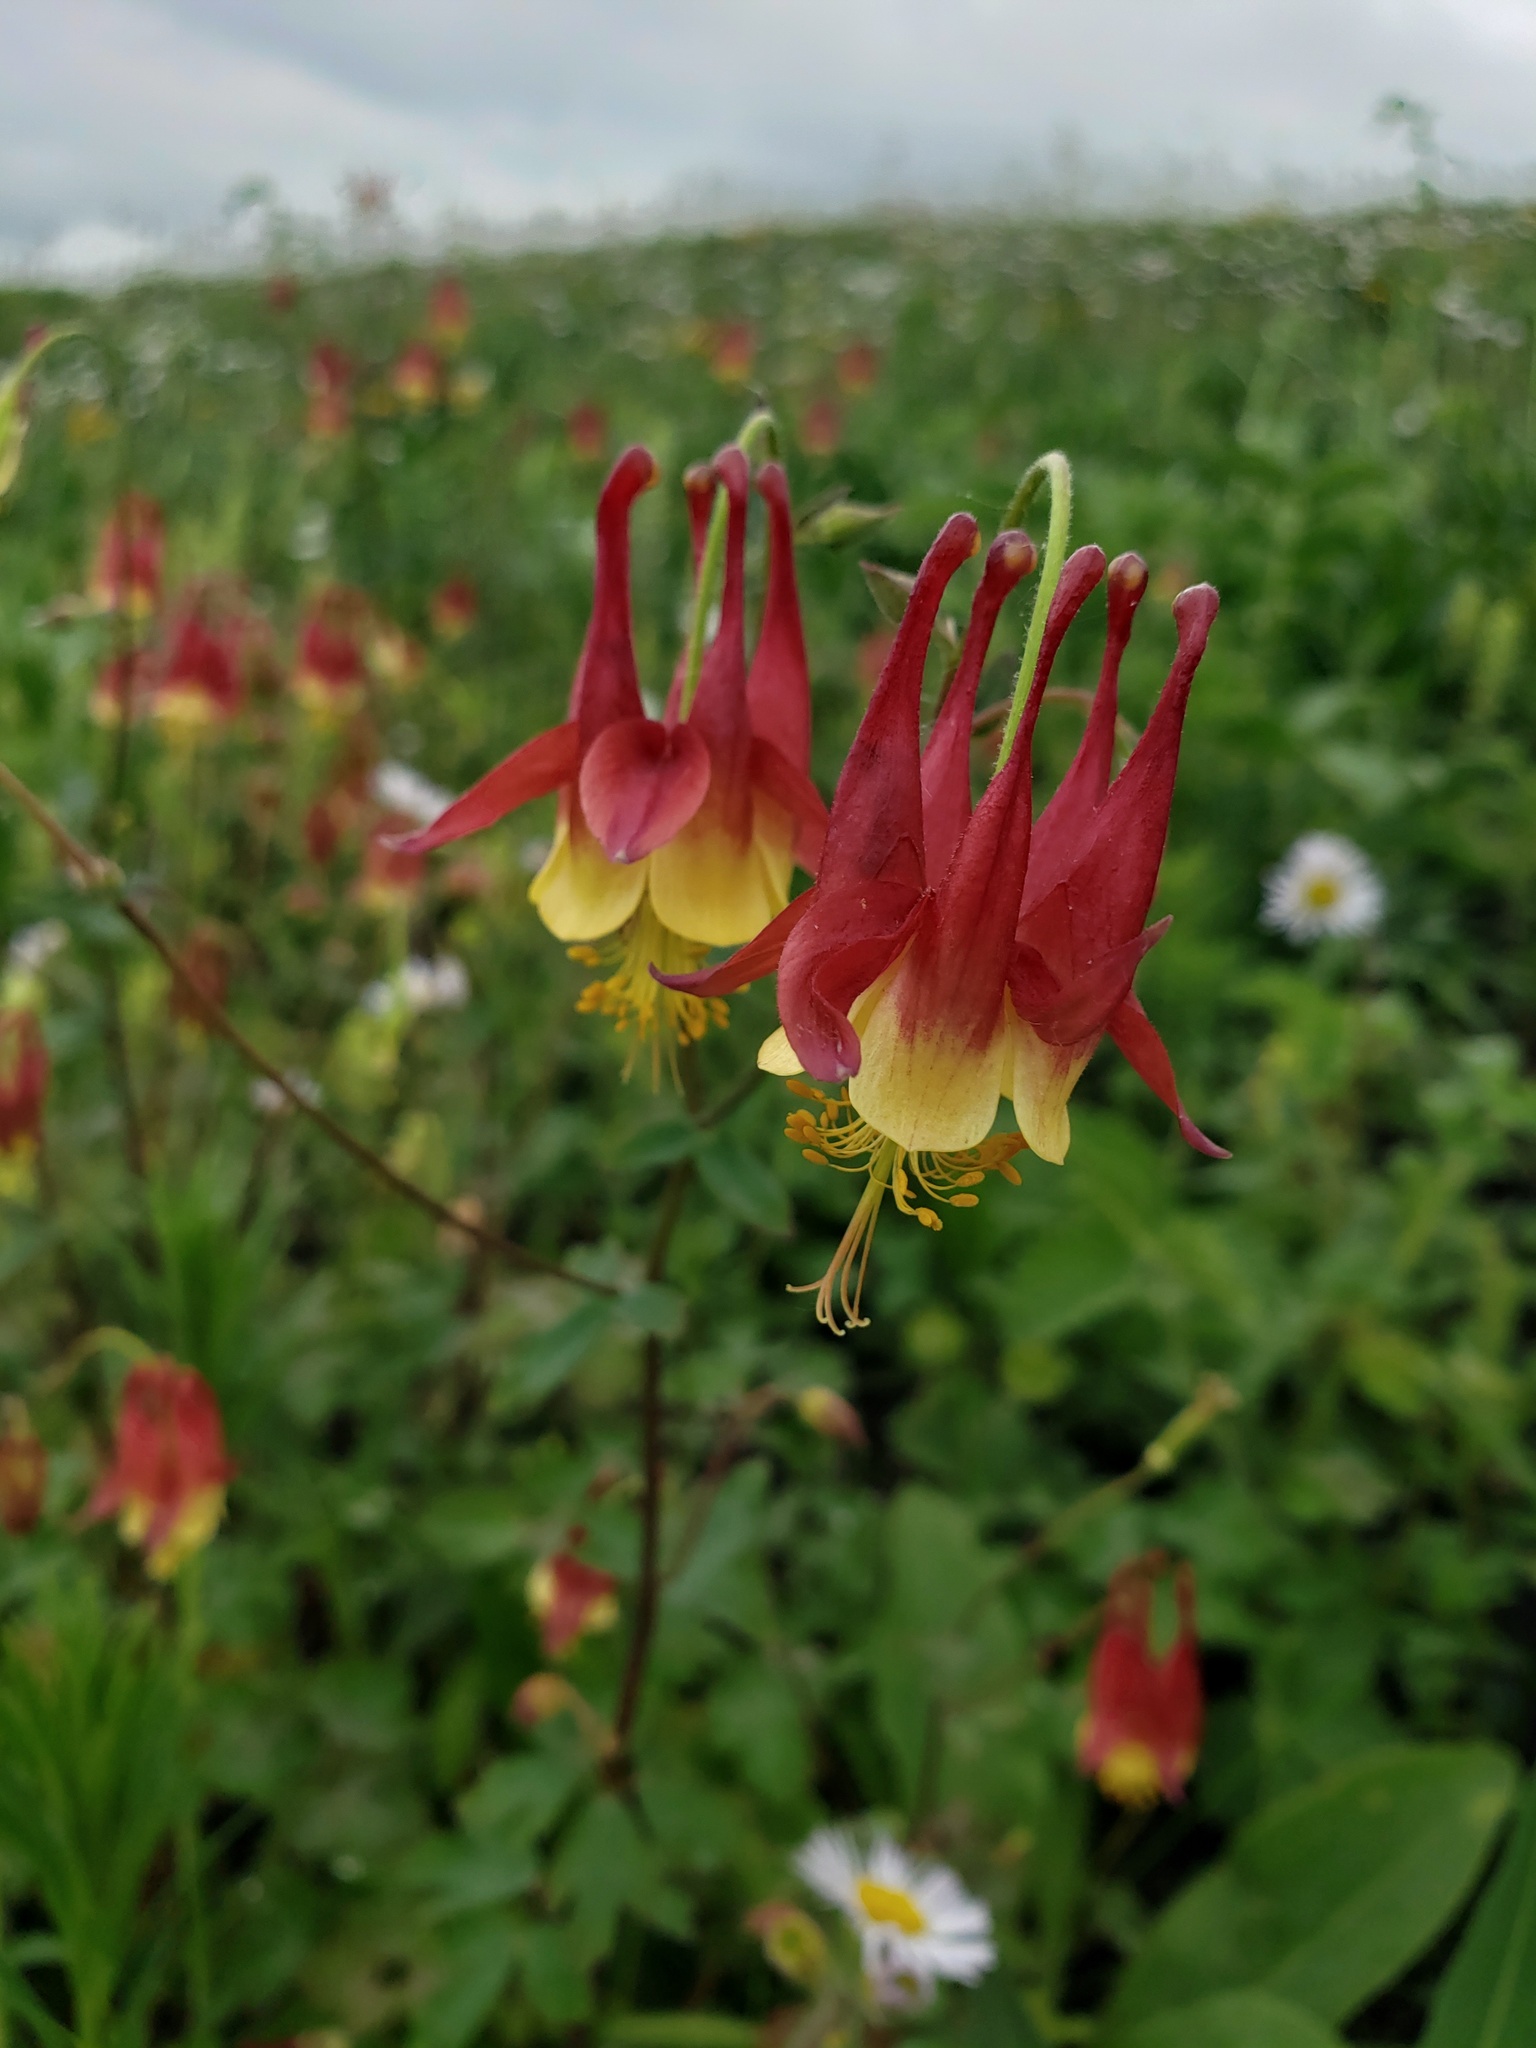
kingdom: Plantae
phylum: Tracheophyta
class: Magnoliopsida
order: Ranunculales
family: Ranunculaceae
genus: Aquilegia
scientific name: Aquilegia canadensis
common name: American columbine
